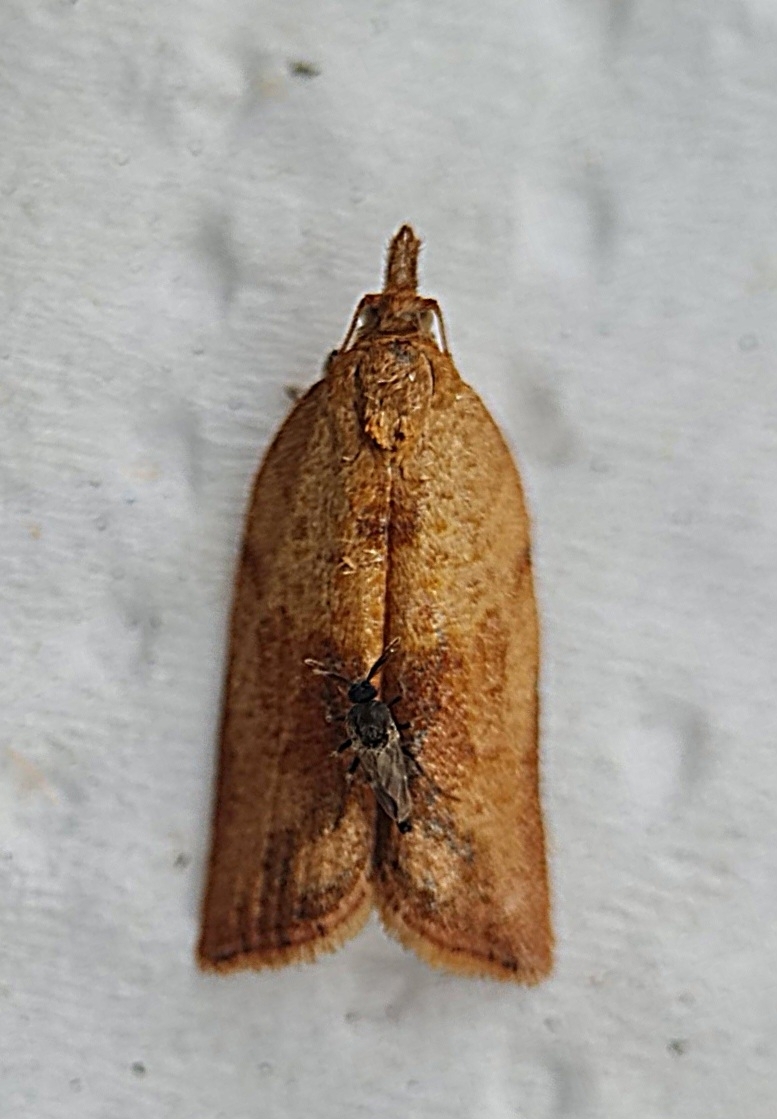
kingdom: Animalia
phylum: Arthropoda
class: Insecta
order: Lepidoptera
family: Tortricidae
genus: Epiphyas
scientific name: Epiphyas postvittana
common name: Light brown apple moth
